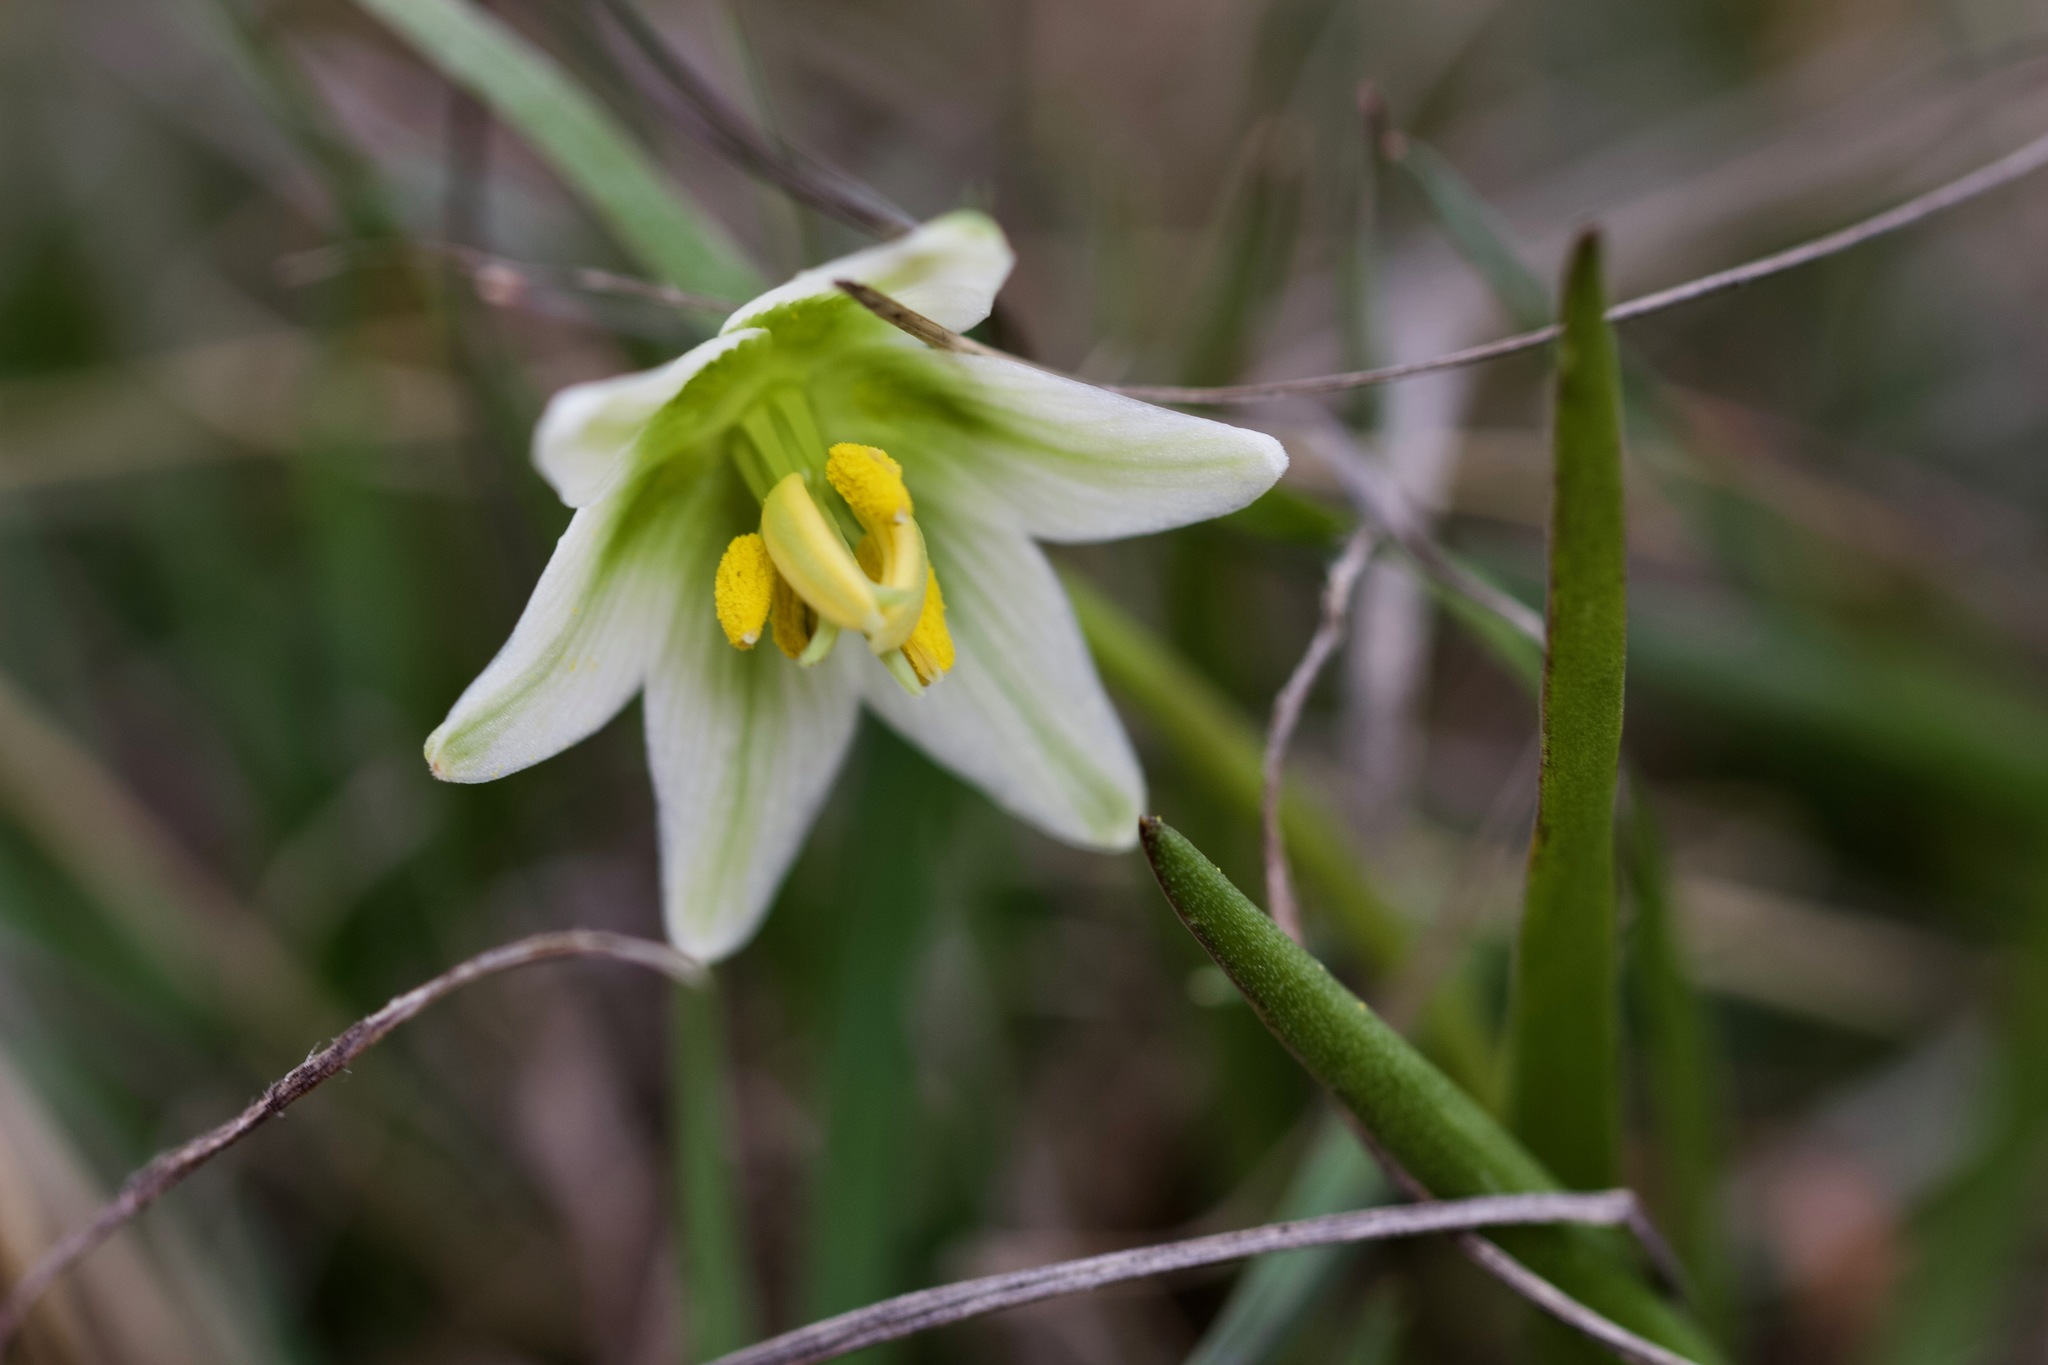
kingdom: Plantae
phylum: Tracheophyta
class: Liliopsida
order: Liliales
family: Liliaceae
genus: Fritillaria
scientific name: Fritillaria liliacea
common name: Fragrant fritillary
